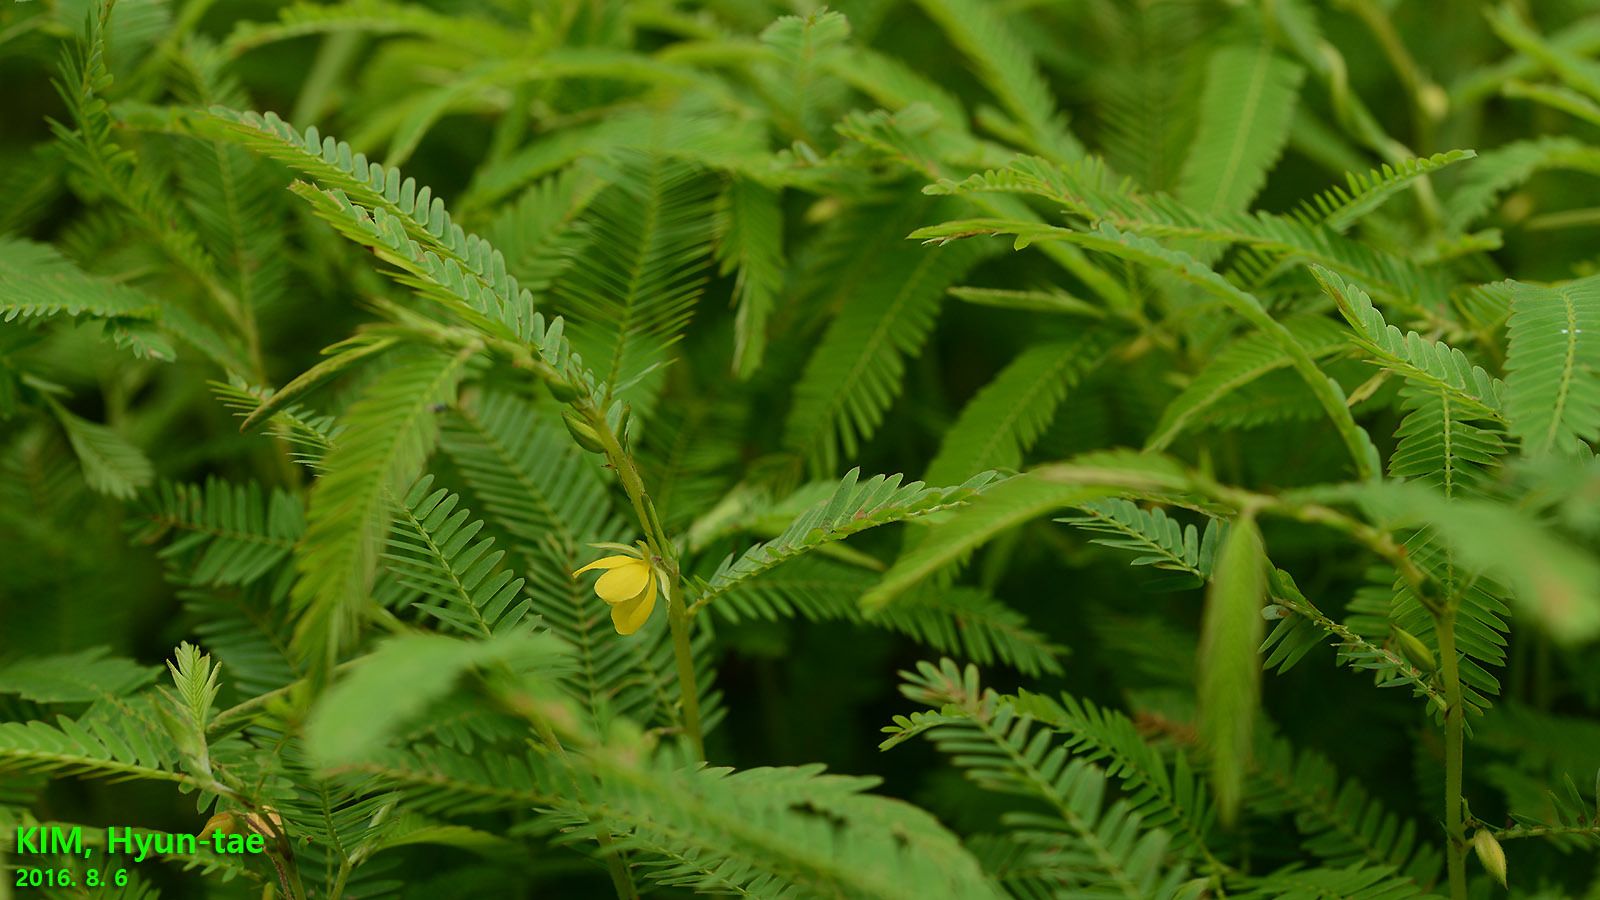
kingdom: Plantae
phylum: Tracheophyta
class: Magnoliopsida
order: Fabales
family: Fabaceae
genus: Chamaecrista
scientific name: Chamaecrista nomame
